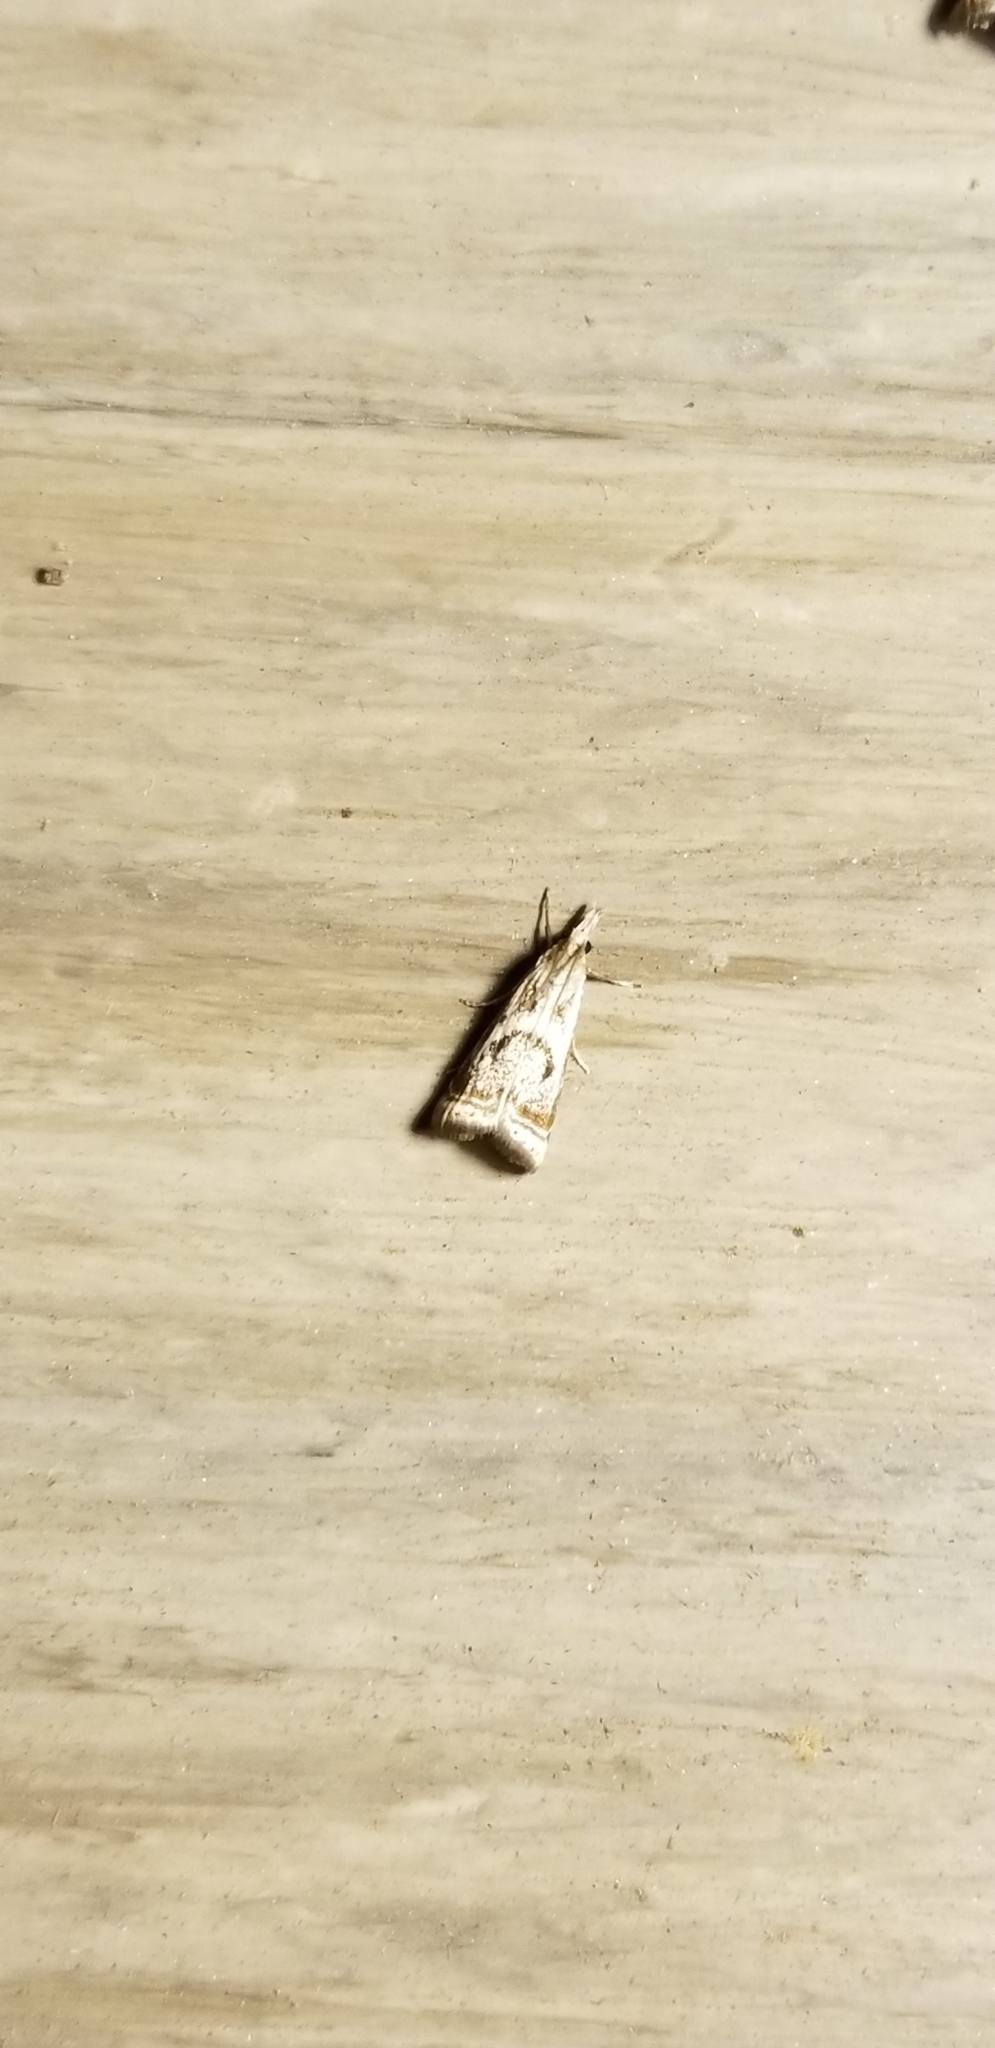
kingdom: Animalia
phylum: Arthropoda
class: Insecta
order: Lepidoptera
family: Crambidae
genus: Microcrambus
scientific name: Microcrambus elegans
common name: Elegant grass-veneer
